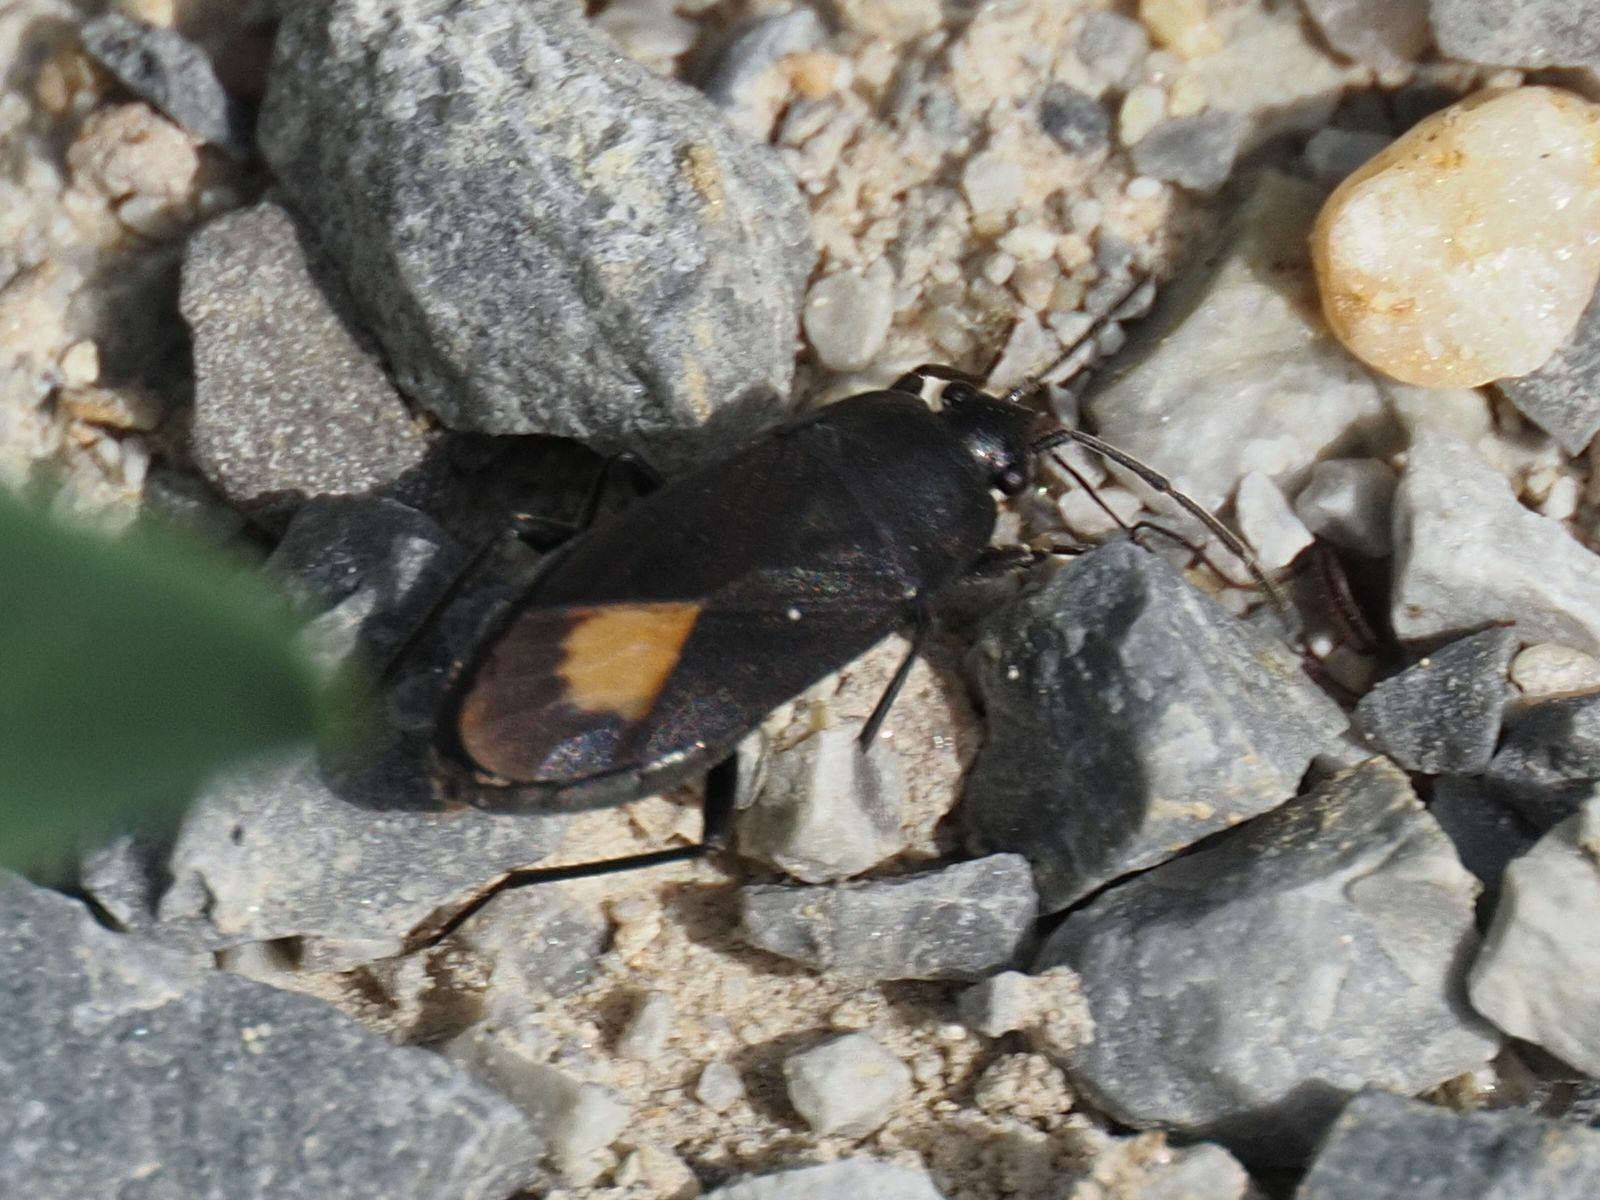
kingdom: Animalia
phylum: Arthropoda
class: Insecta
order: Hemiptera
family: Rhyparochromidae
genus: Aphanus
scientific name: Aphanus rolandri
